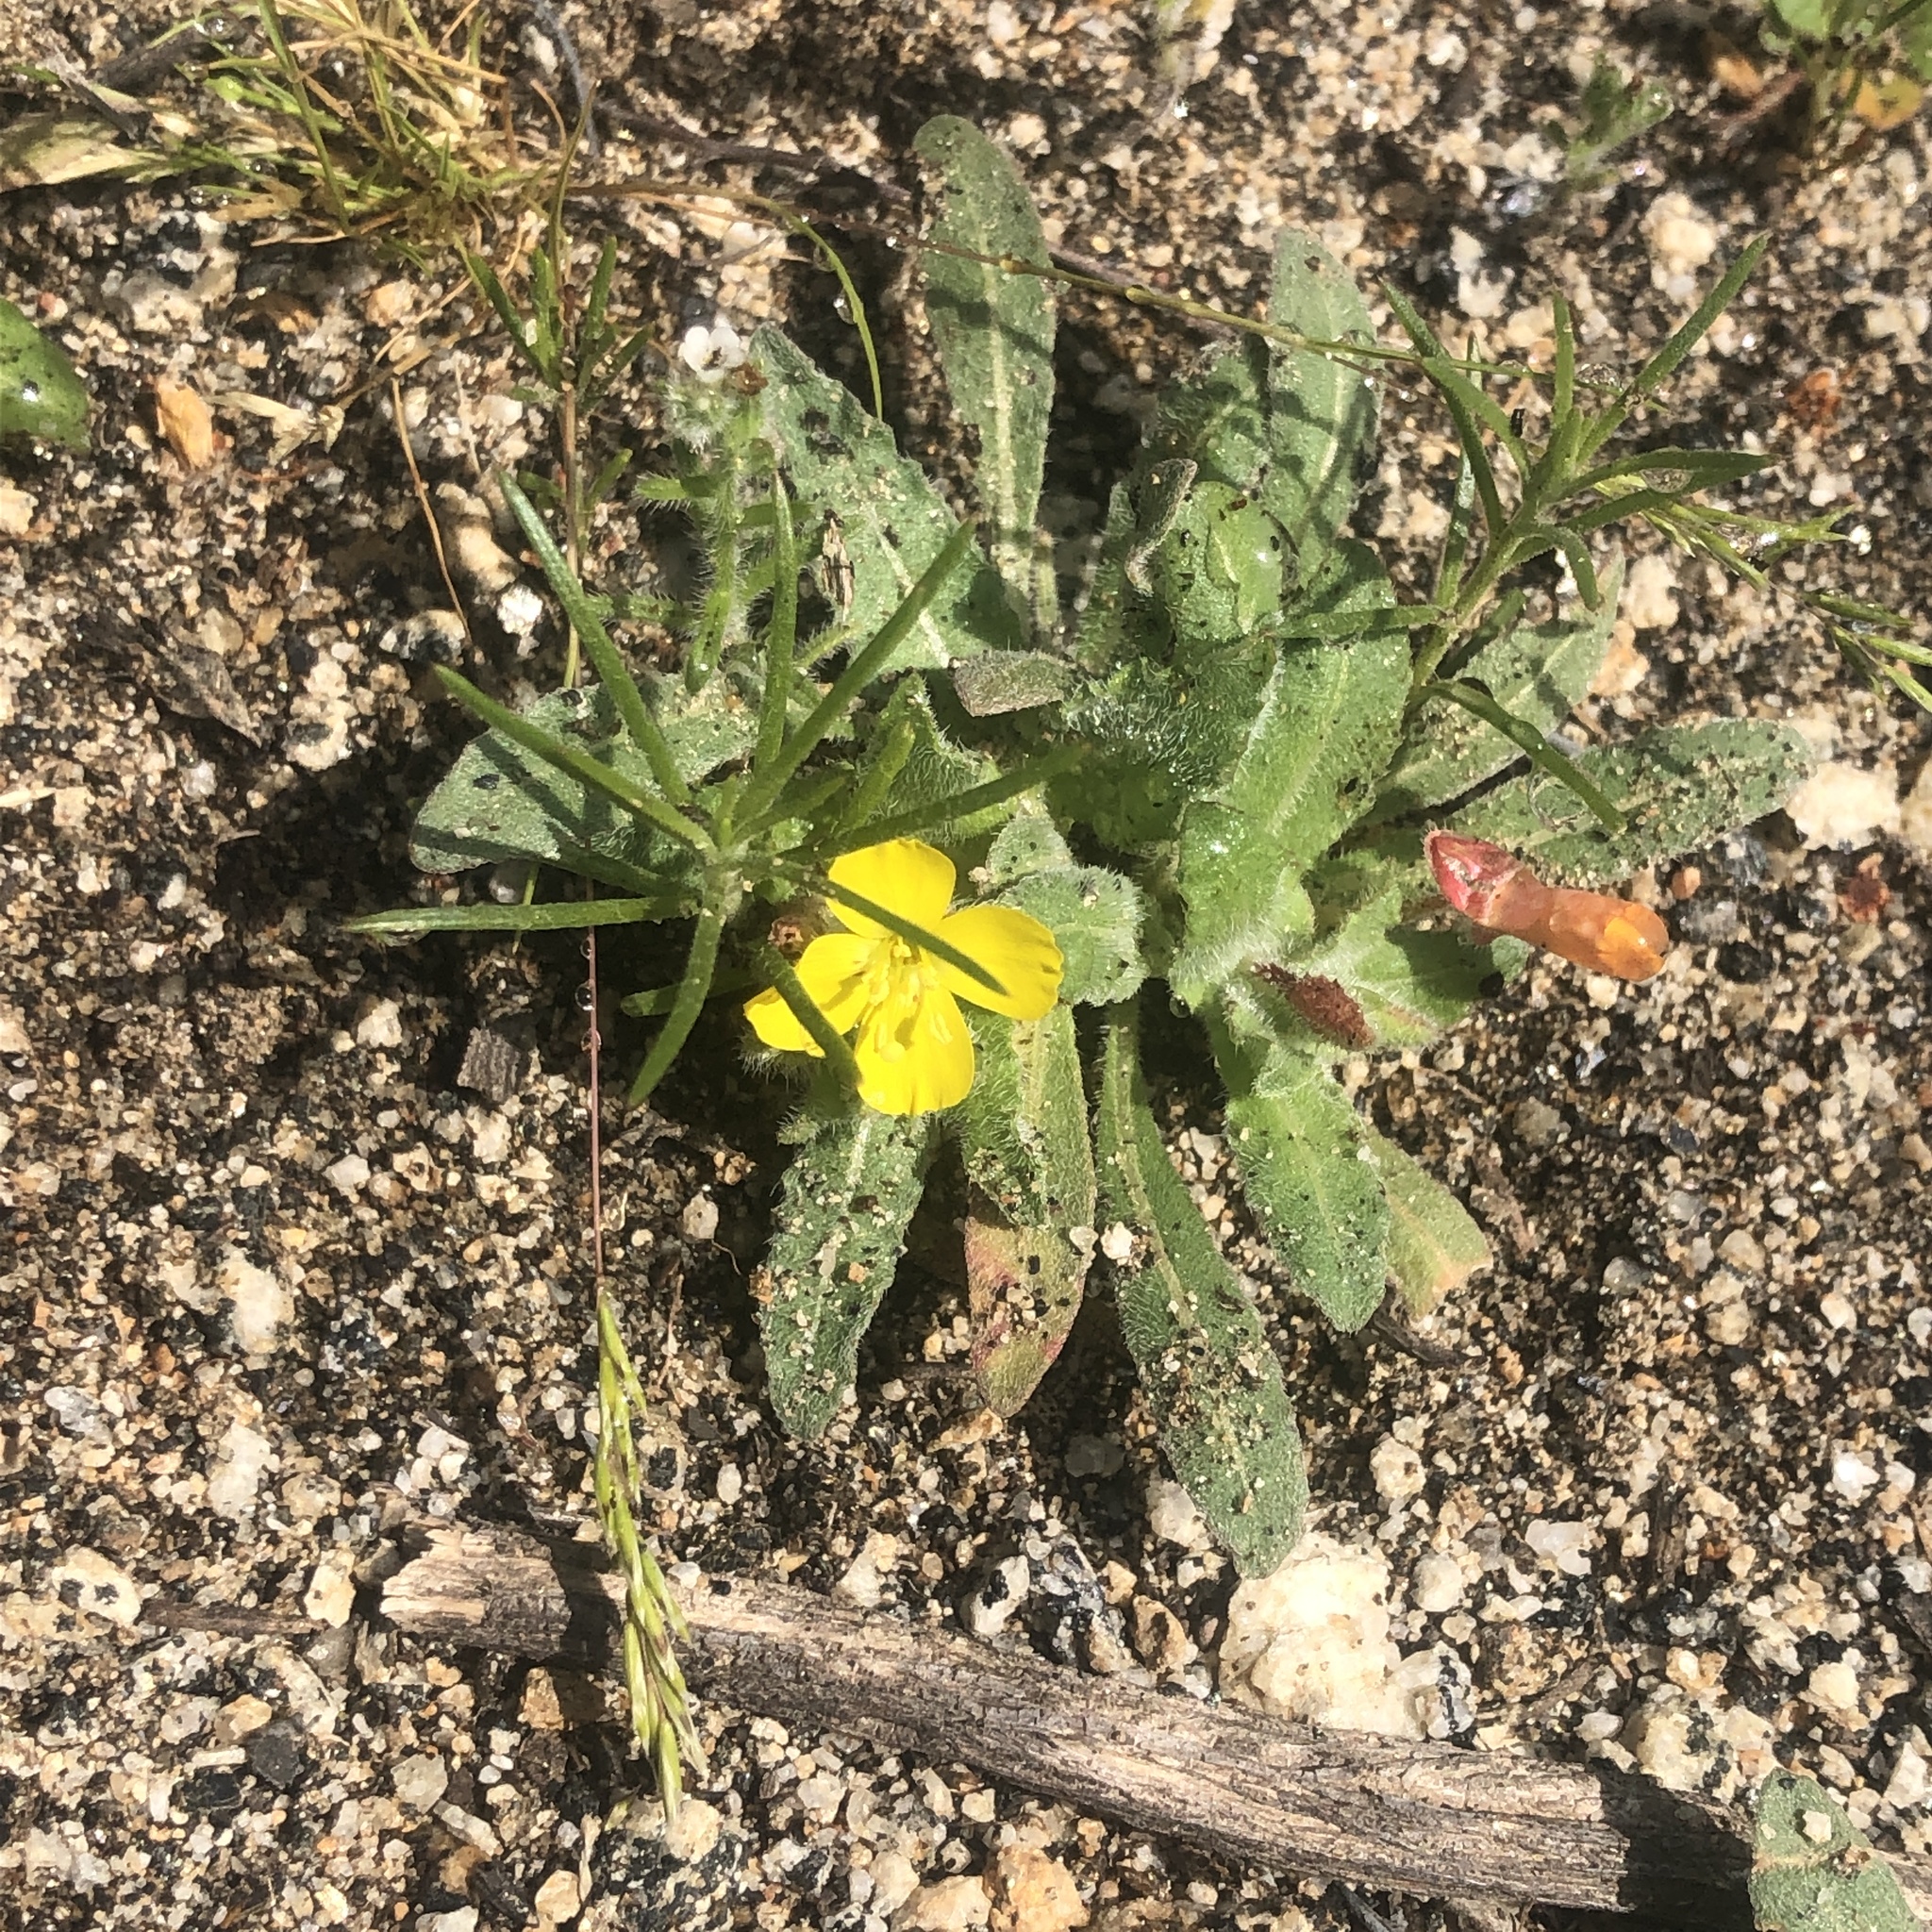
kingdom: Plantae
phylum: Tracheophyta
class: Magnoliopsida
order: Myrtales
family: Onagraceae
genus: Camissoniopsis
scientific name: Camissoniopsis hirtella
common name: Santa cruz island suncup
